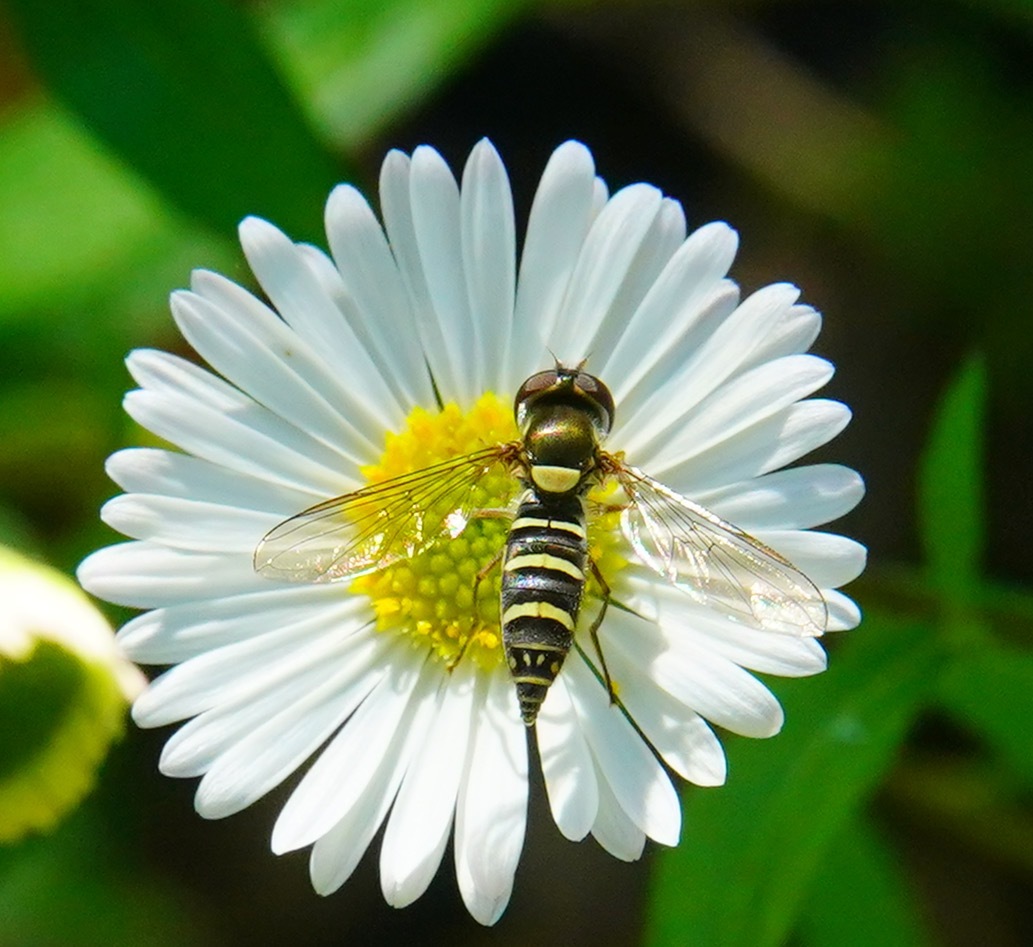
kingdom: Animalia
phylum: Arthropoda
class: Insecta
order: Diptera
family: Syrphidae
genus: Fazia
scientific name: Fazia micrura
